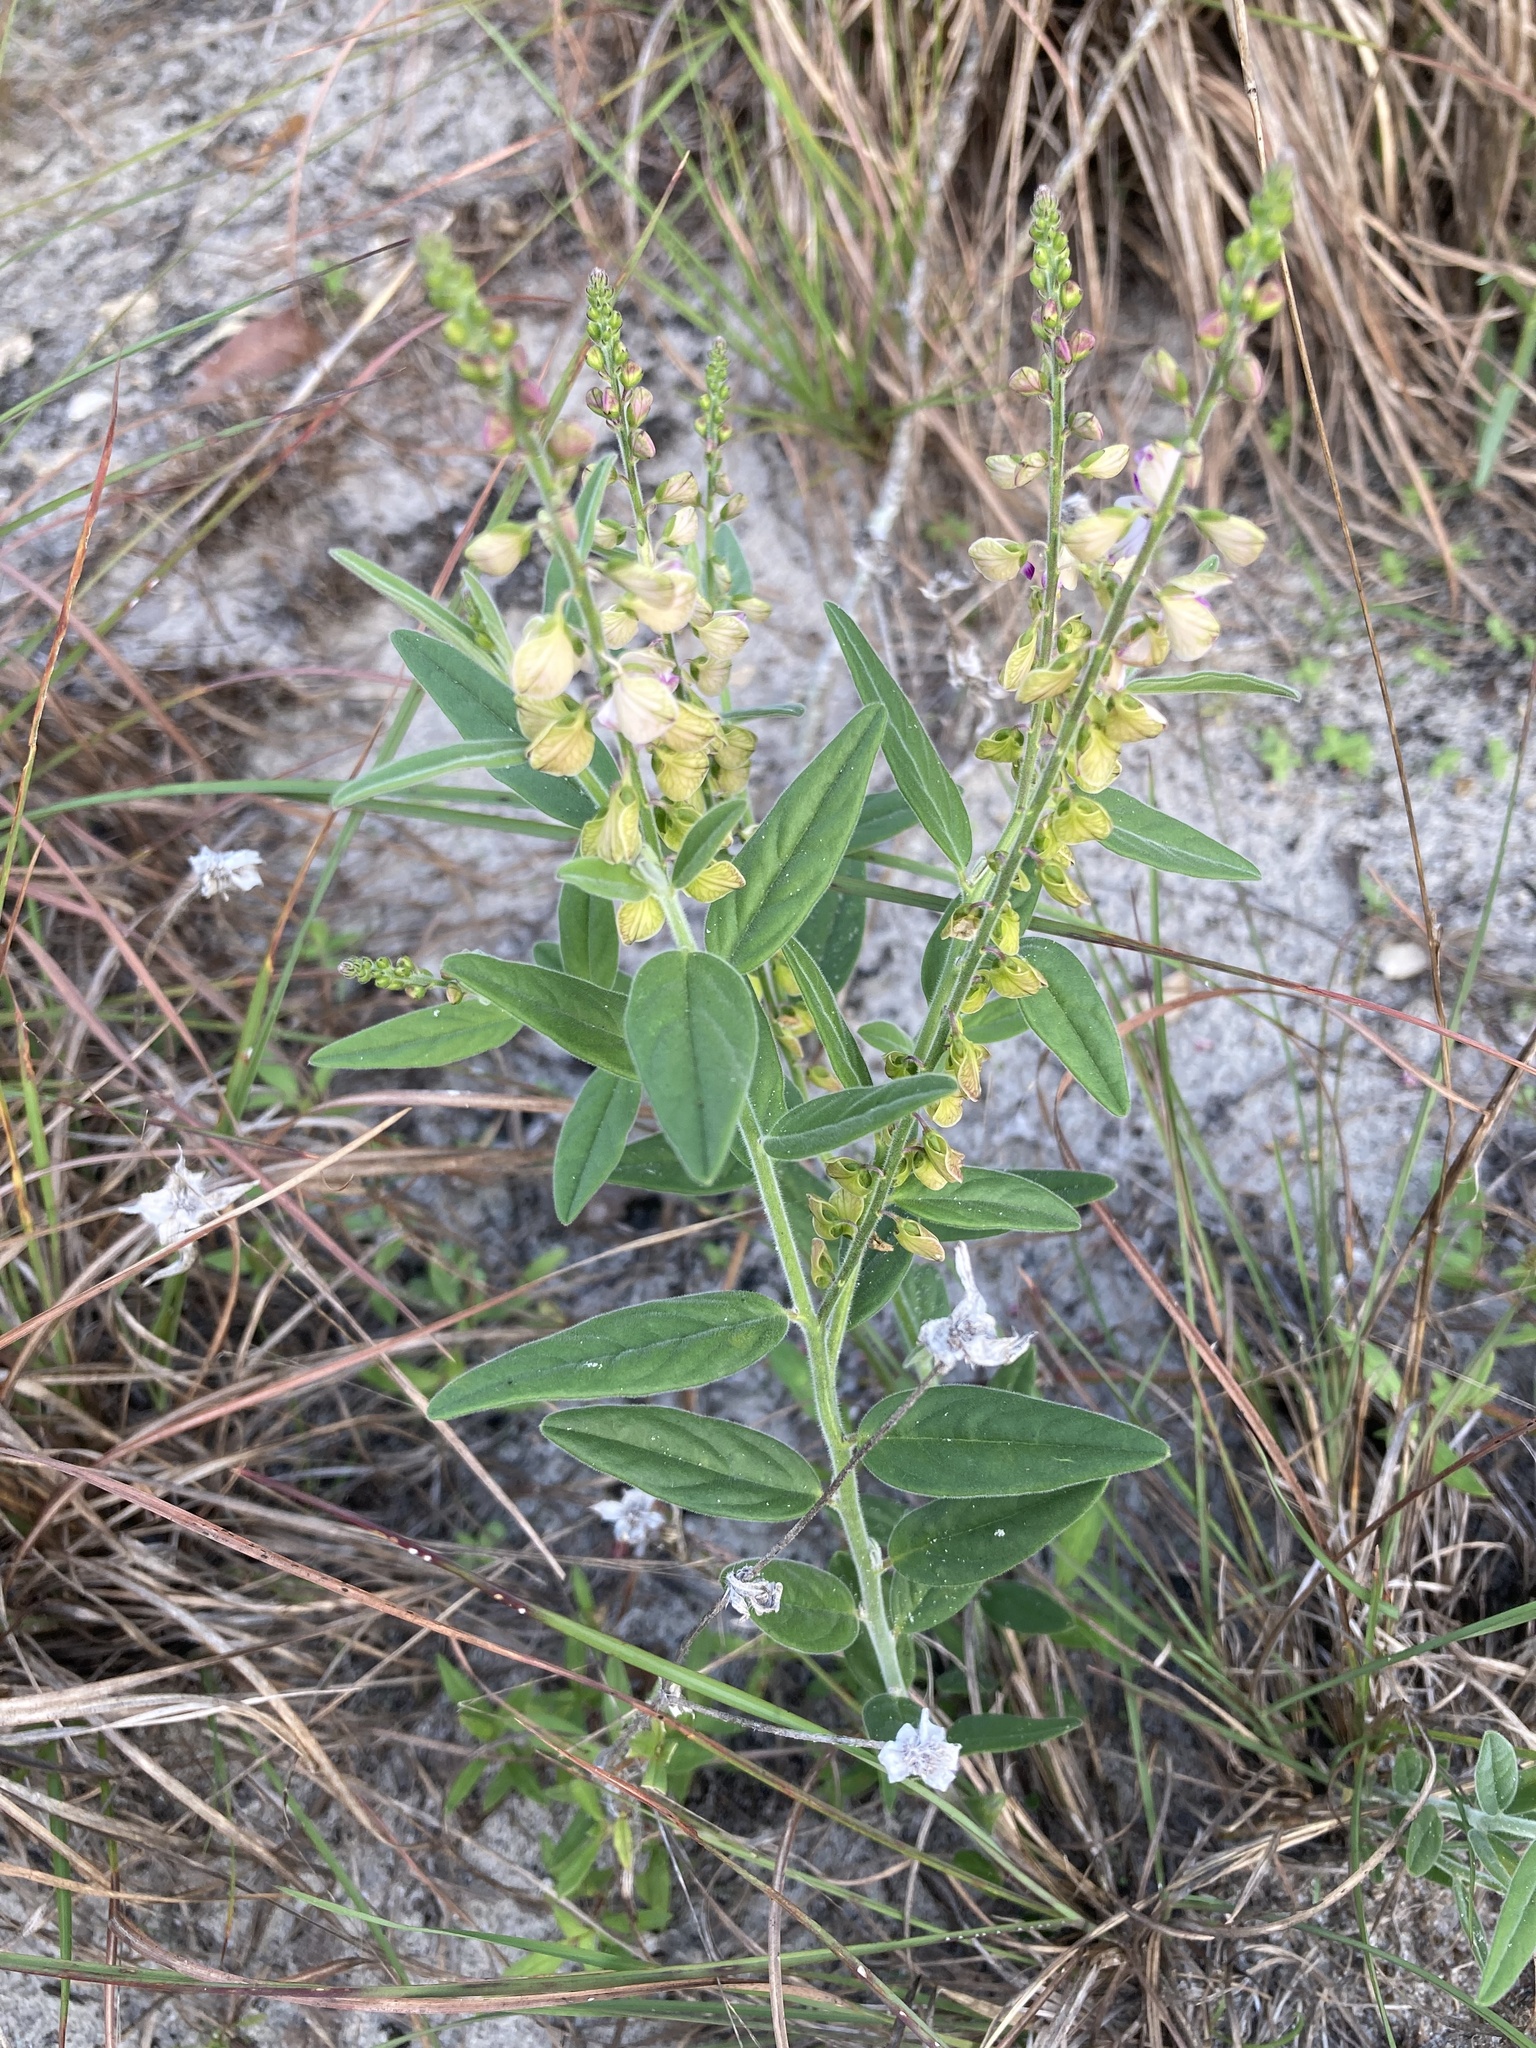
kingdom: Plantae
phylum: Tracheophyta
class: Magnoliopsida
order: Fabales
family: Polygalaceae
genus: Asemeia
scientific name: Asemeia grandiflora
